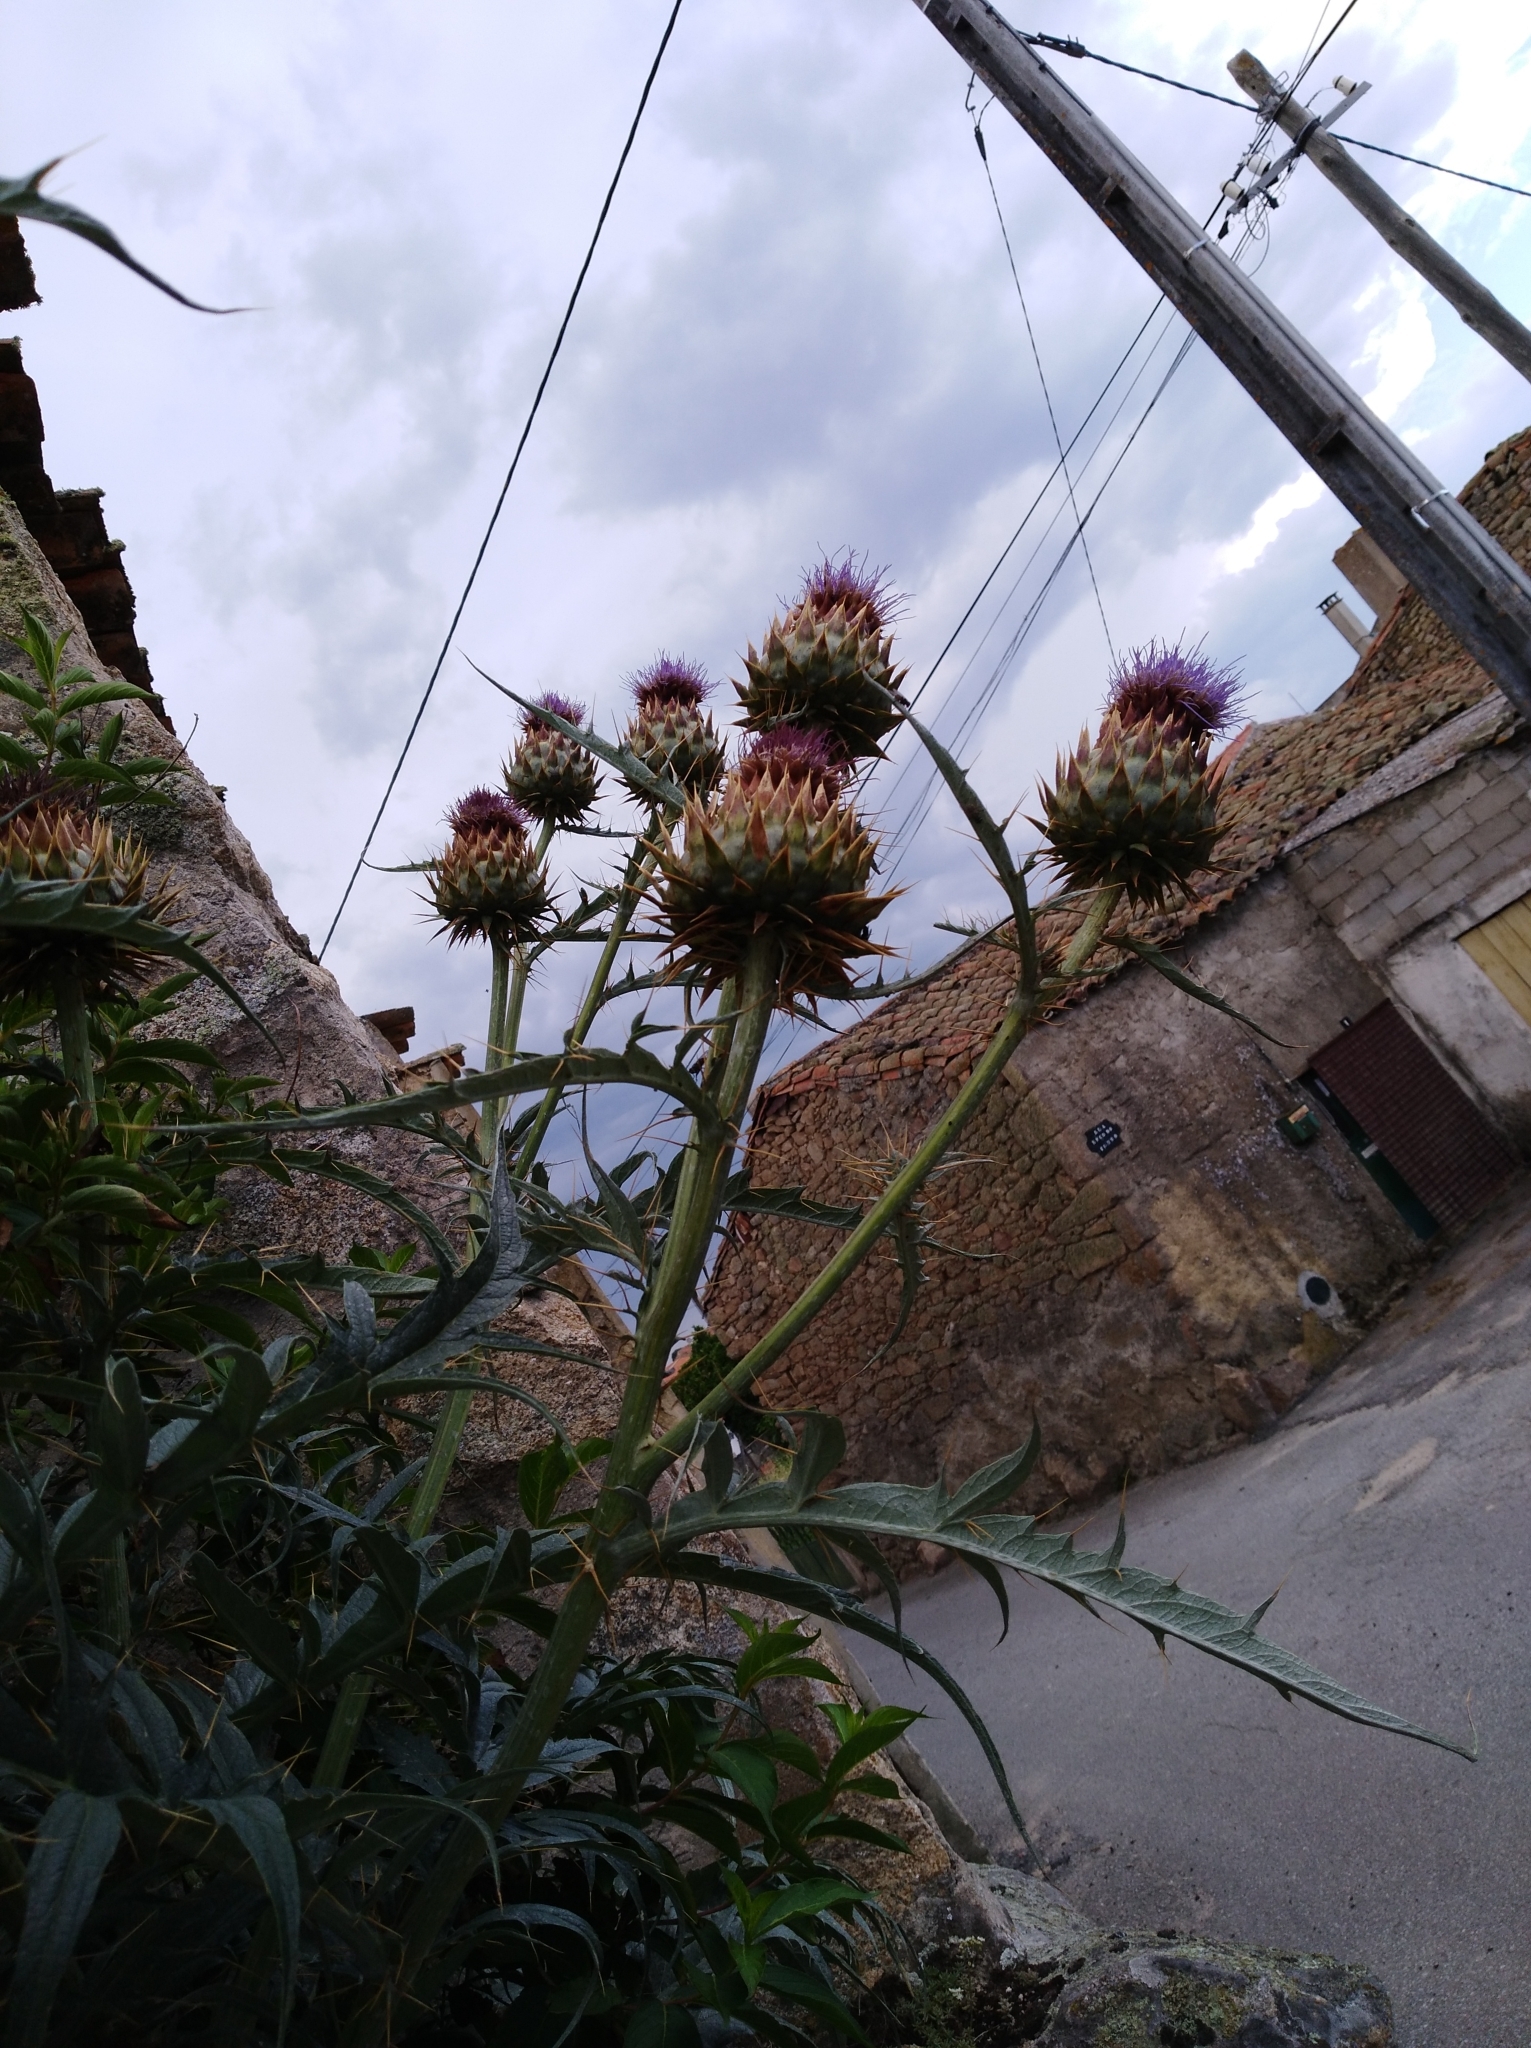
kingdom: Plantae
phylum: Tracheophyta
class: Magnoliopsida
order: Asterales
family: Asteraceae
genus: Cynara
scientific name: Cynara cardunculus
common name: Globe artichoke
